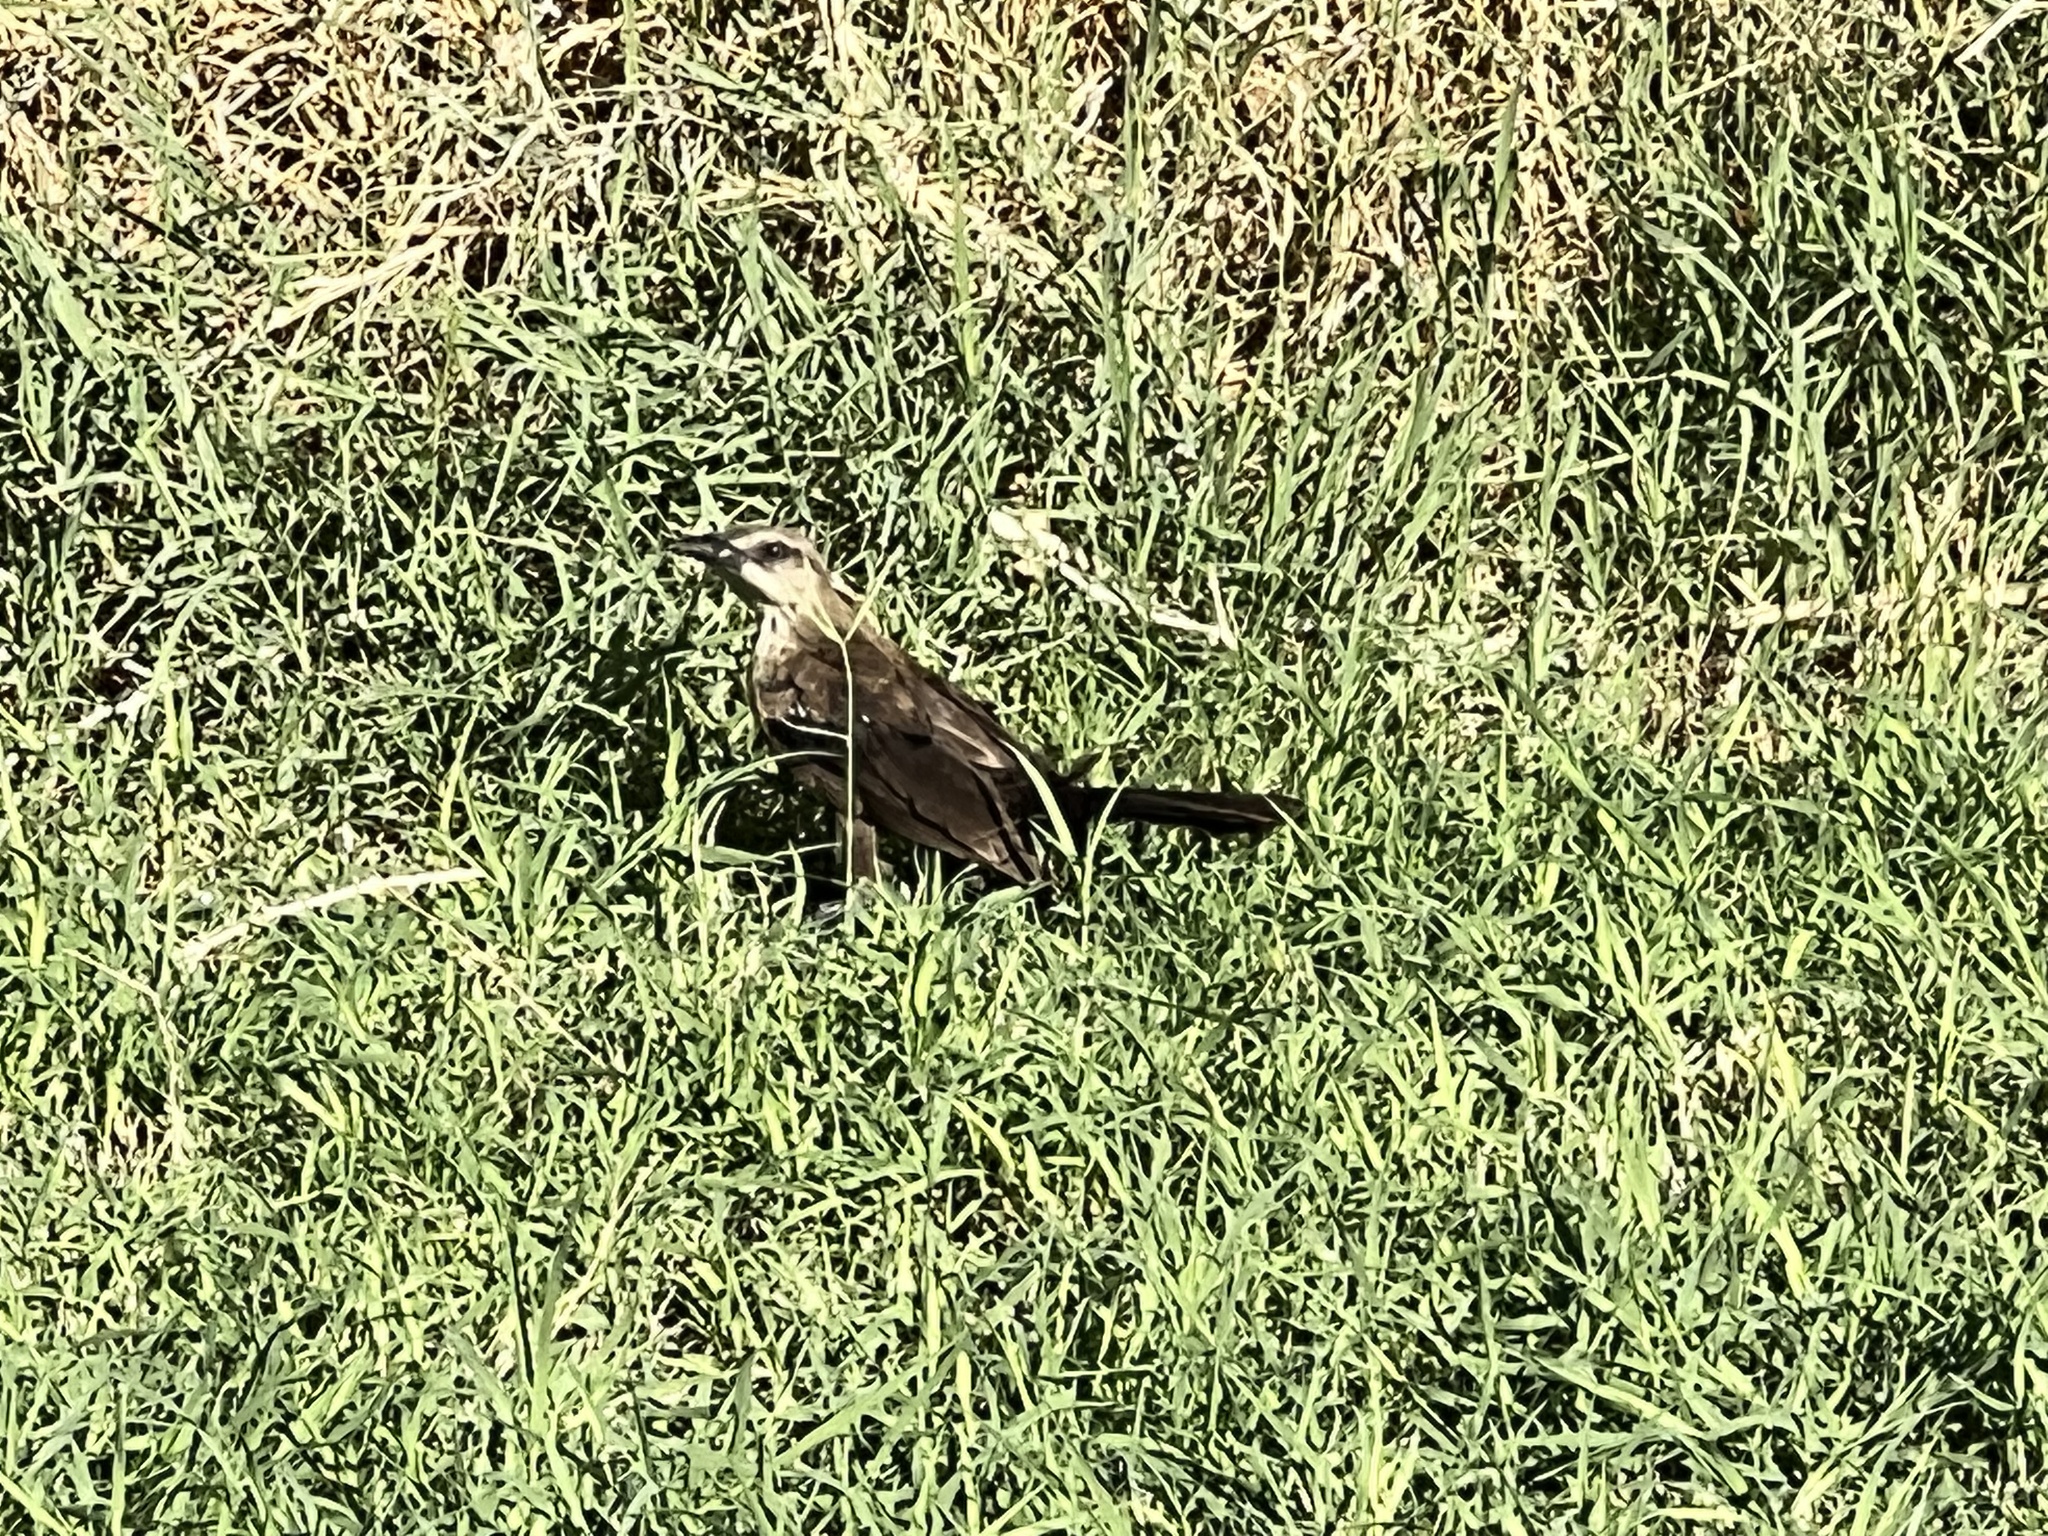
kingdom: Animalia
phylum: Chordata
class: Aves
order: Passeriformes
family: Icteridae
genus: Quiscalus
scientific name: Quiscalus mexicanus
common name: Great-tailed grackle
